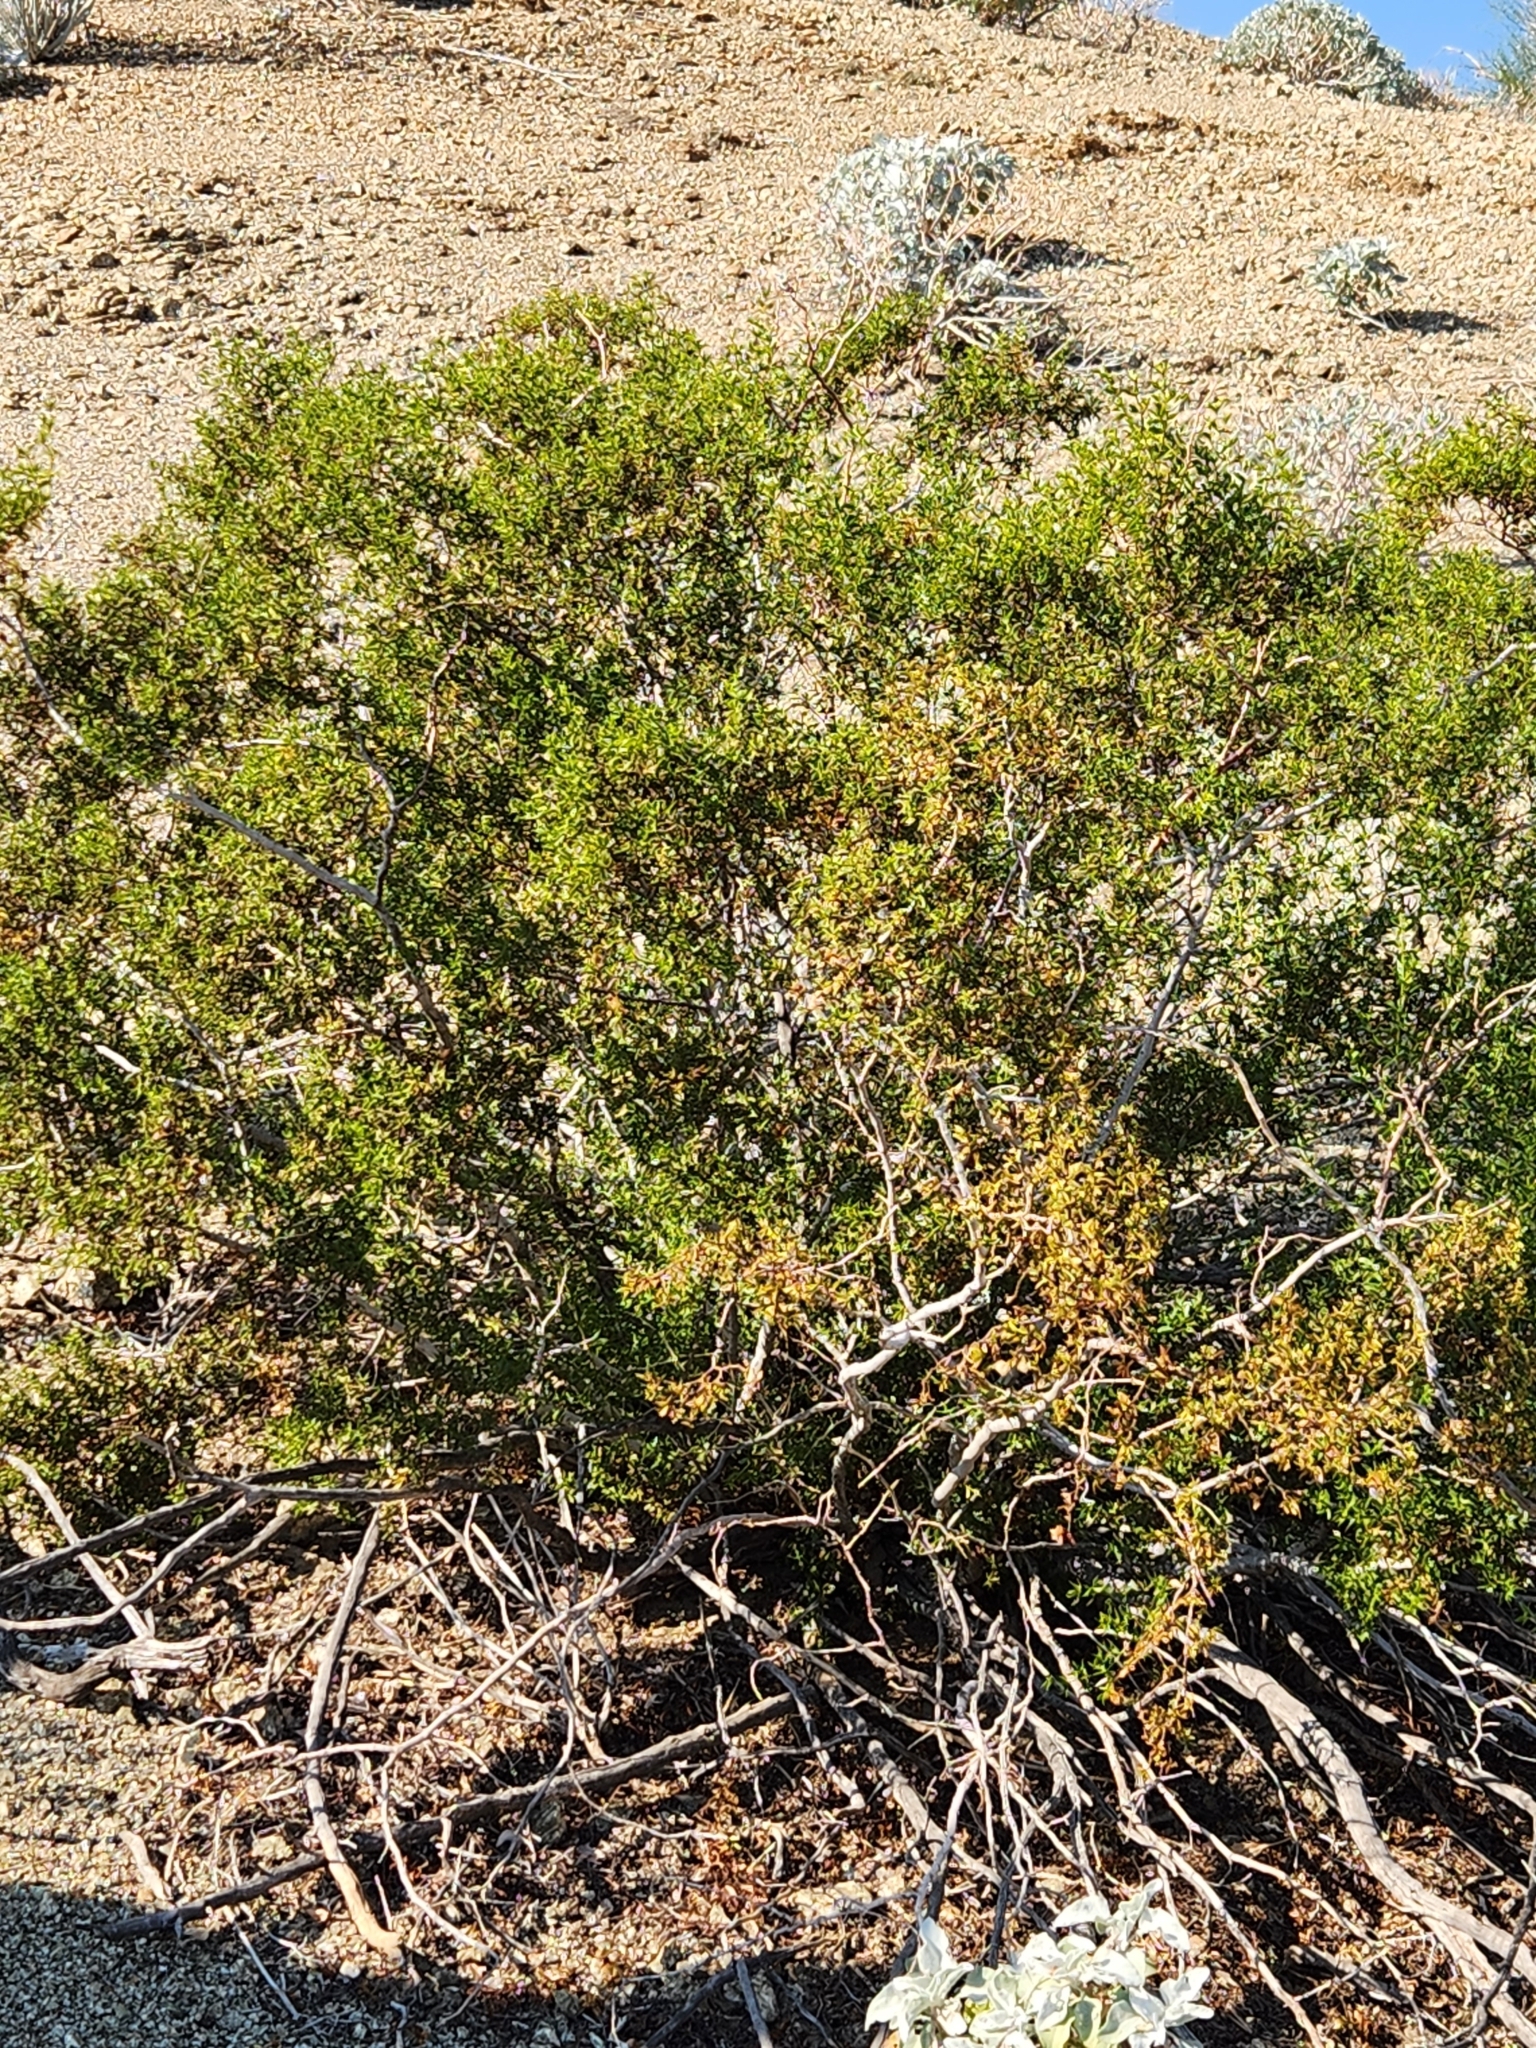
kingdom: Plantae
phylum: Tracheophyta
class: Magnoliopsida
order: Zygophyllales
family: Zygophyllaceae
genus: Larrea
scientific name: Larrea tridentata
